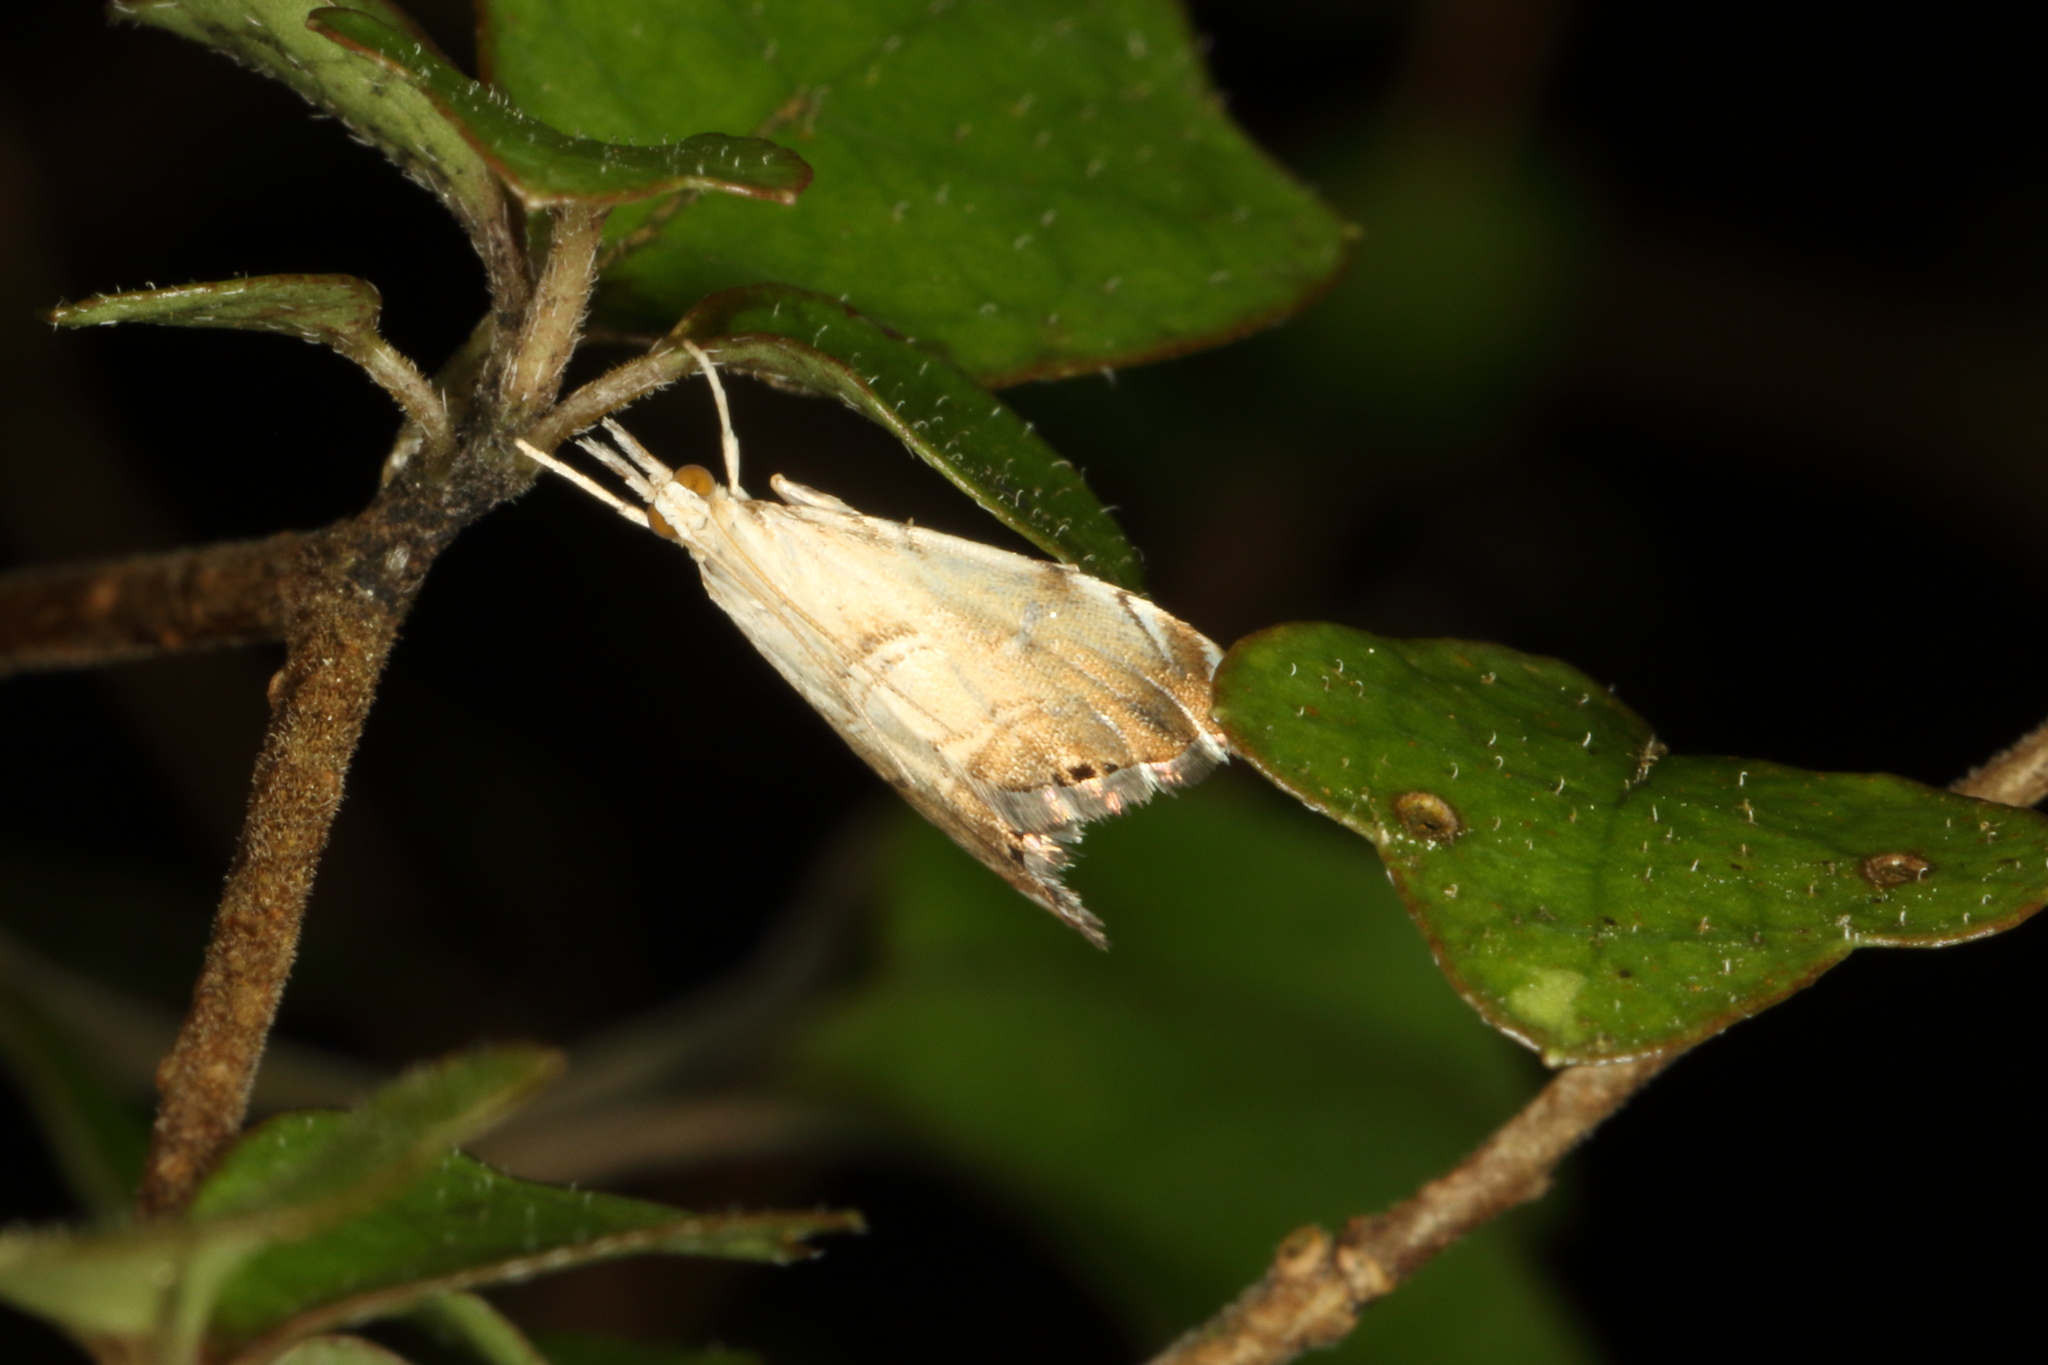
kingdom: Animalia
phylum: Arthropoda
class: Insecta
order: Lepidoptera
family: Crambidae
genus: Glaucocharis
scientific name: Glaucocharis harmonica
